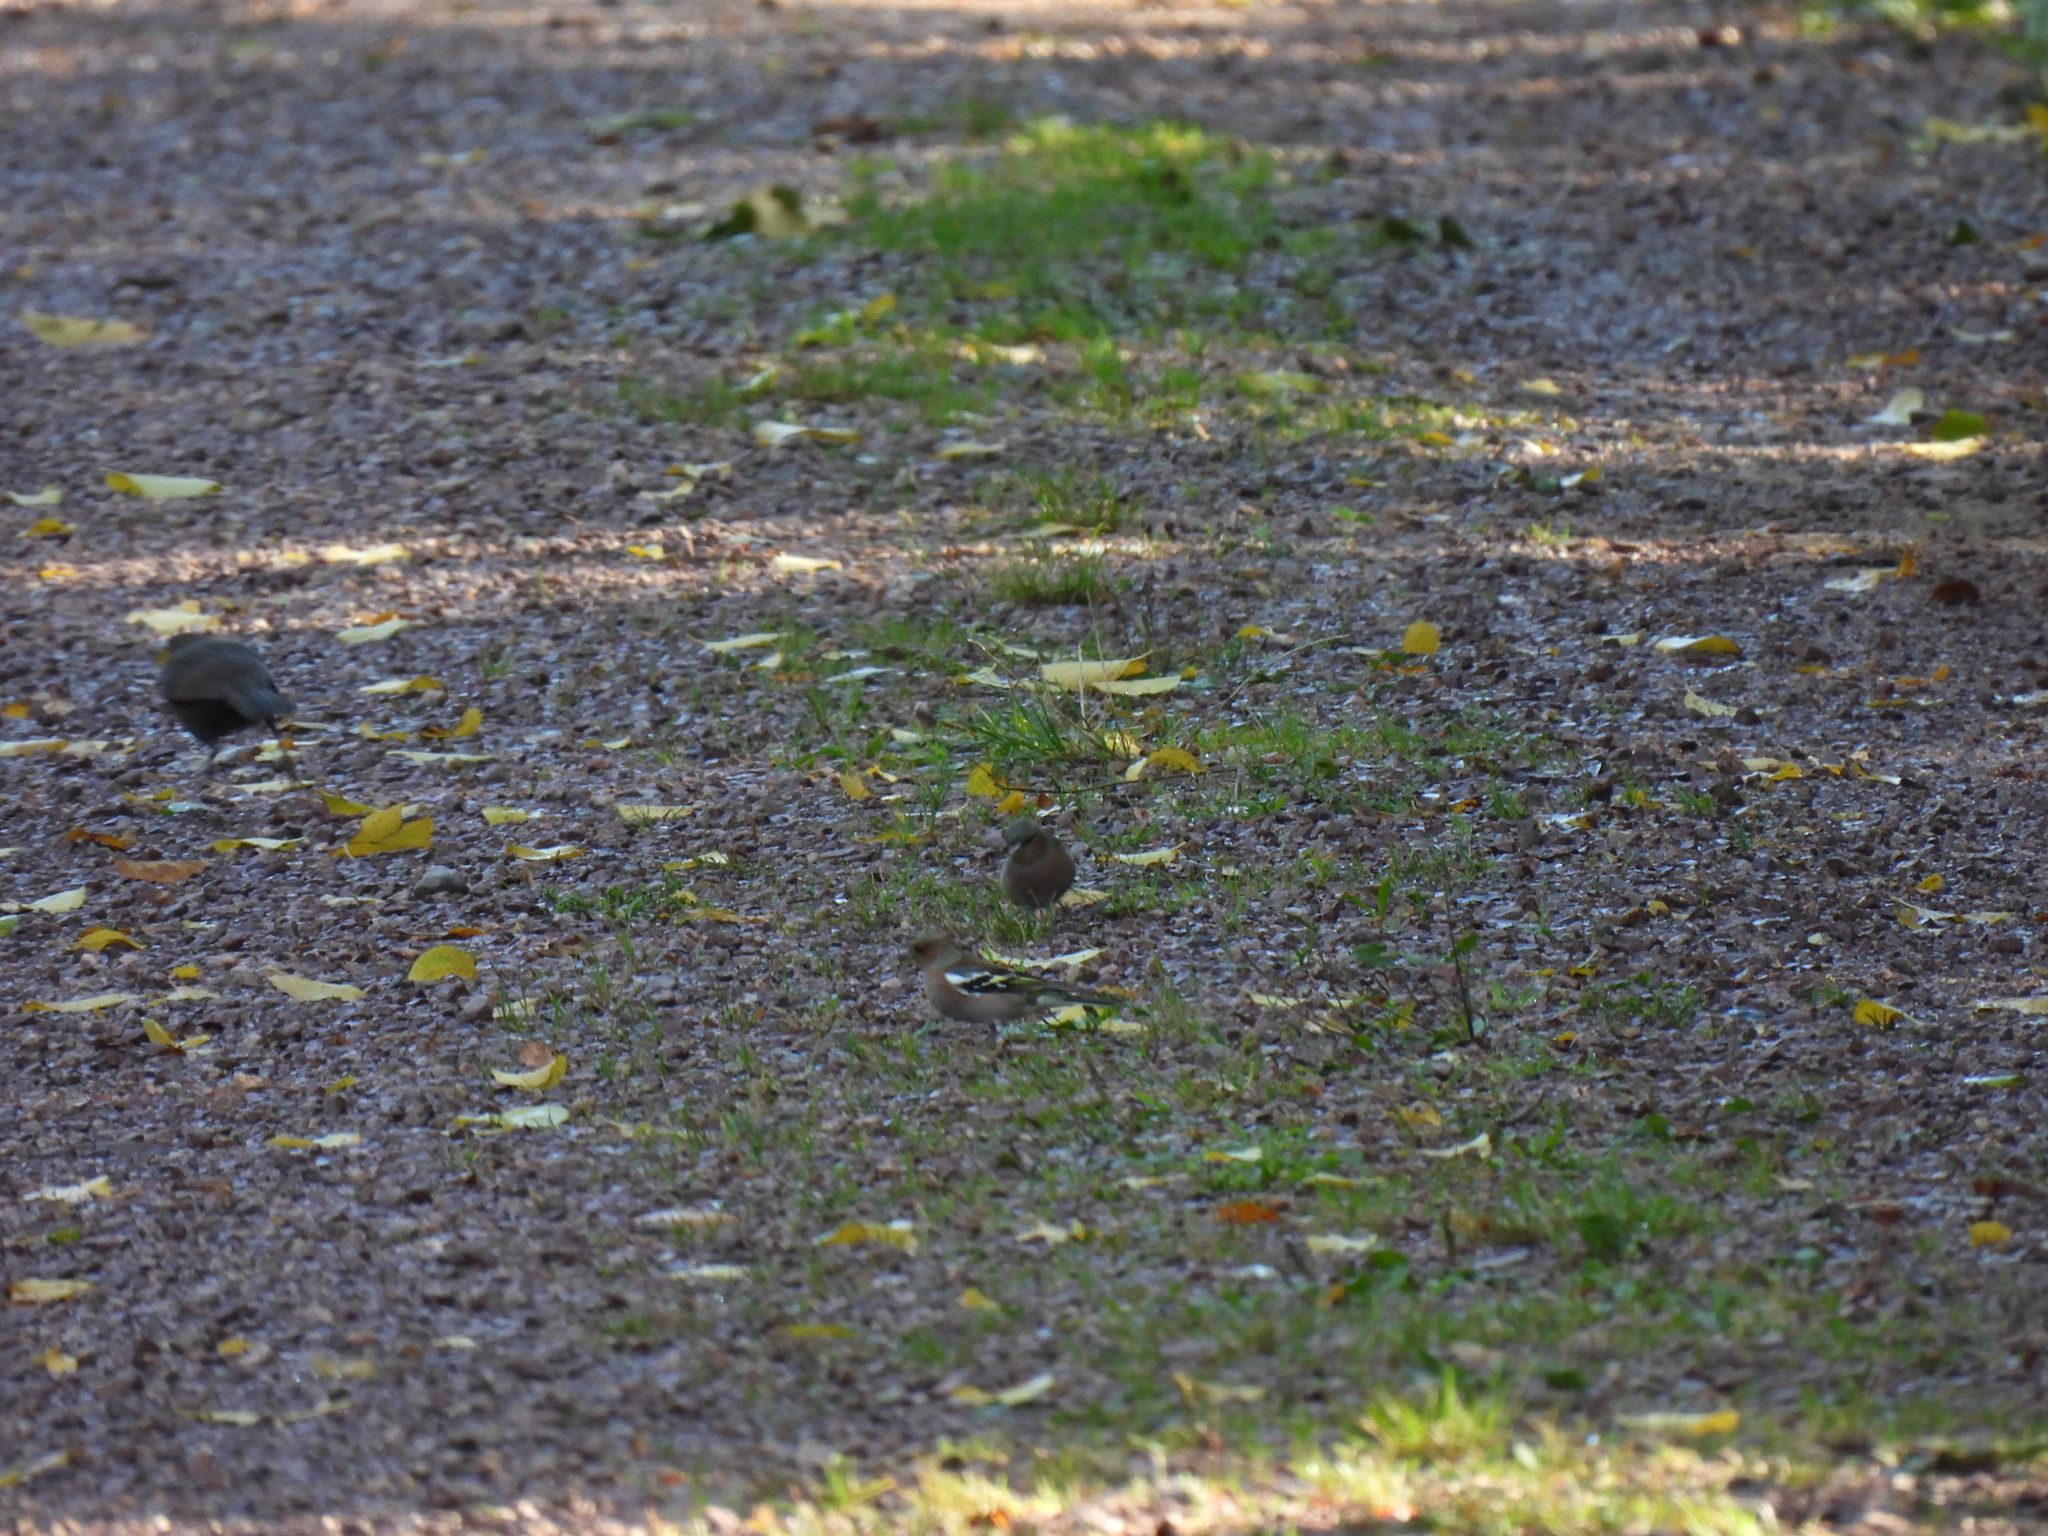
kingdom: Animalia
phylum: Chordata
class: Aves
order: Passeriformes
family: Fringillidae
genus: Fringilla
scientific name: Fringilla coelebs
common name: Common chaffinch
